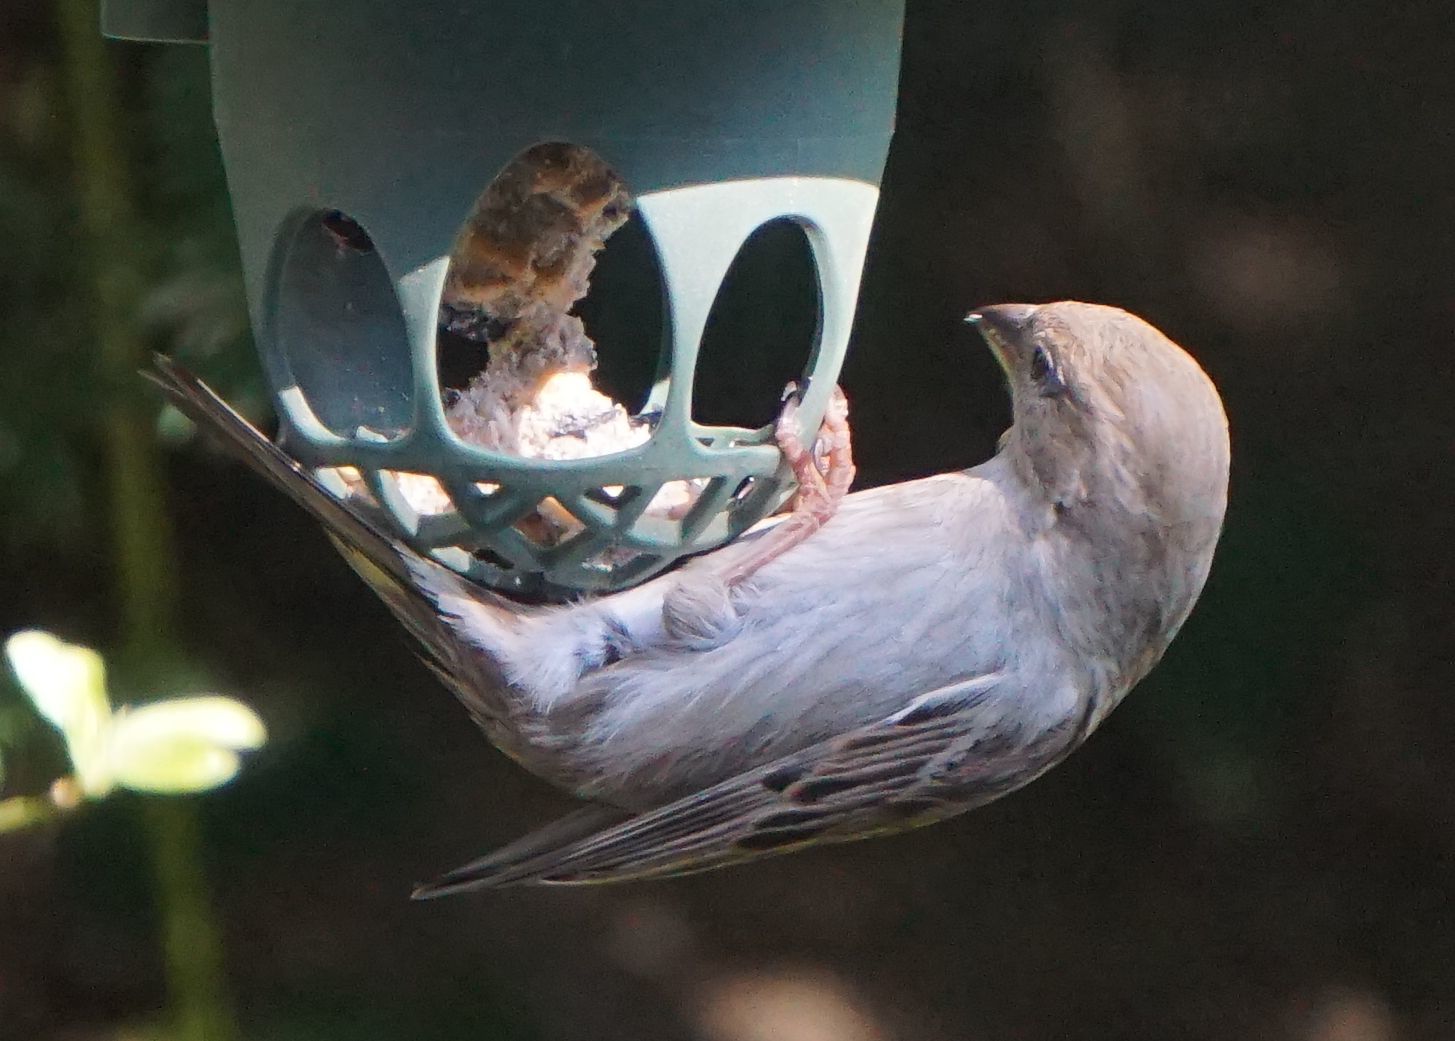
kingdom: Animalia
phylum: Chordata
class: Aves
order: Passeriformes
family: Passeridae
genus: Passer
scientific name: Passer domesticus
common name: House sparrow
